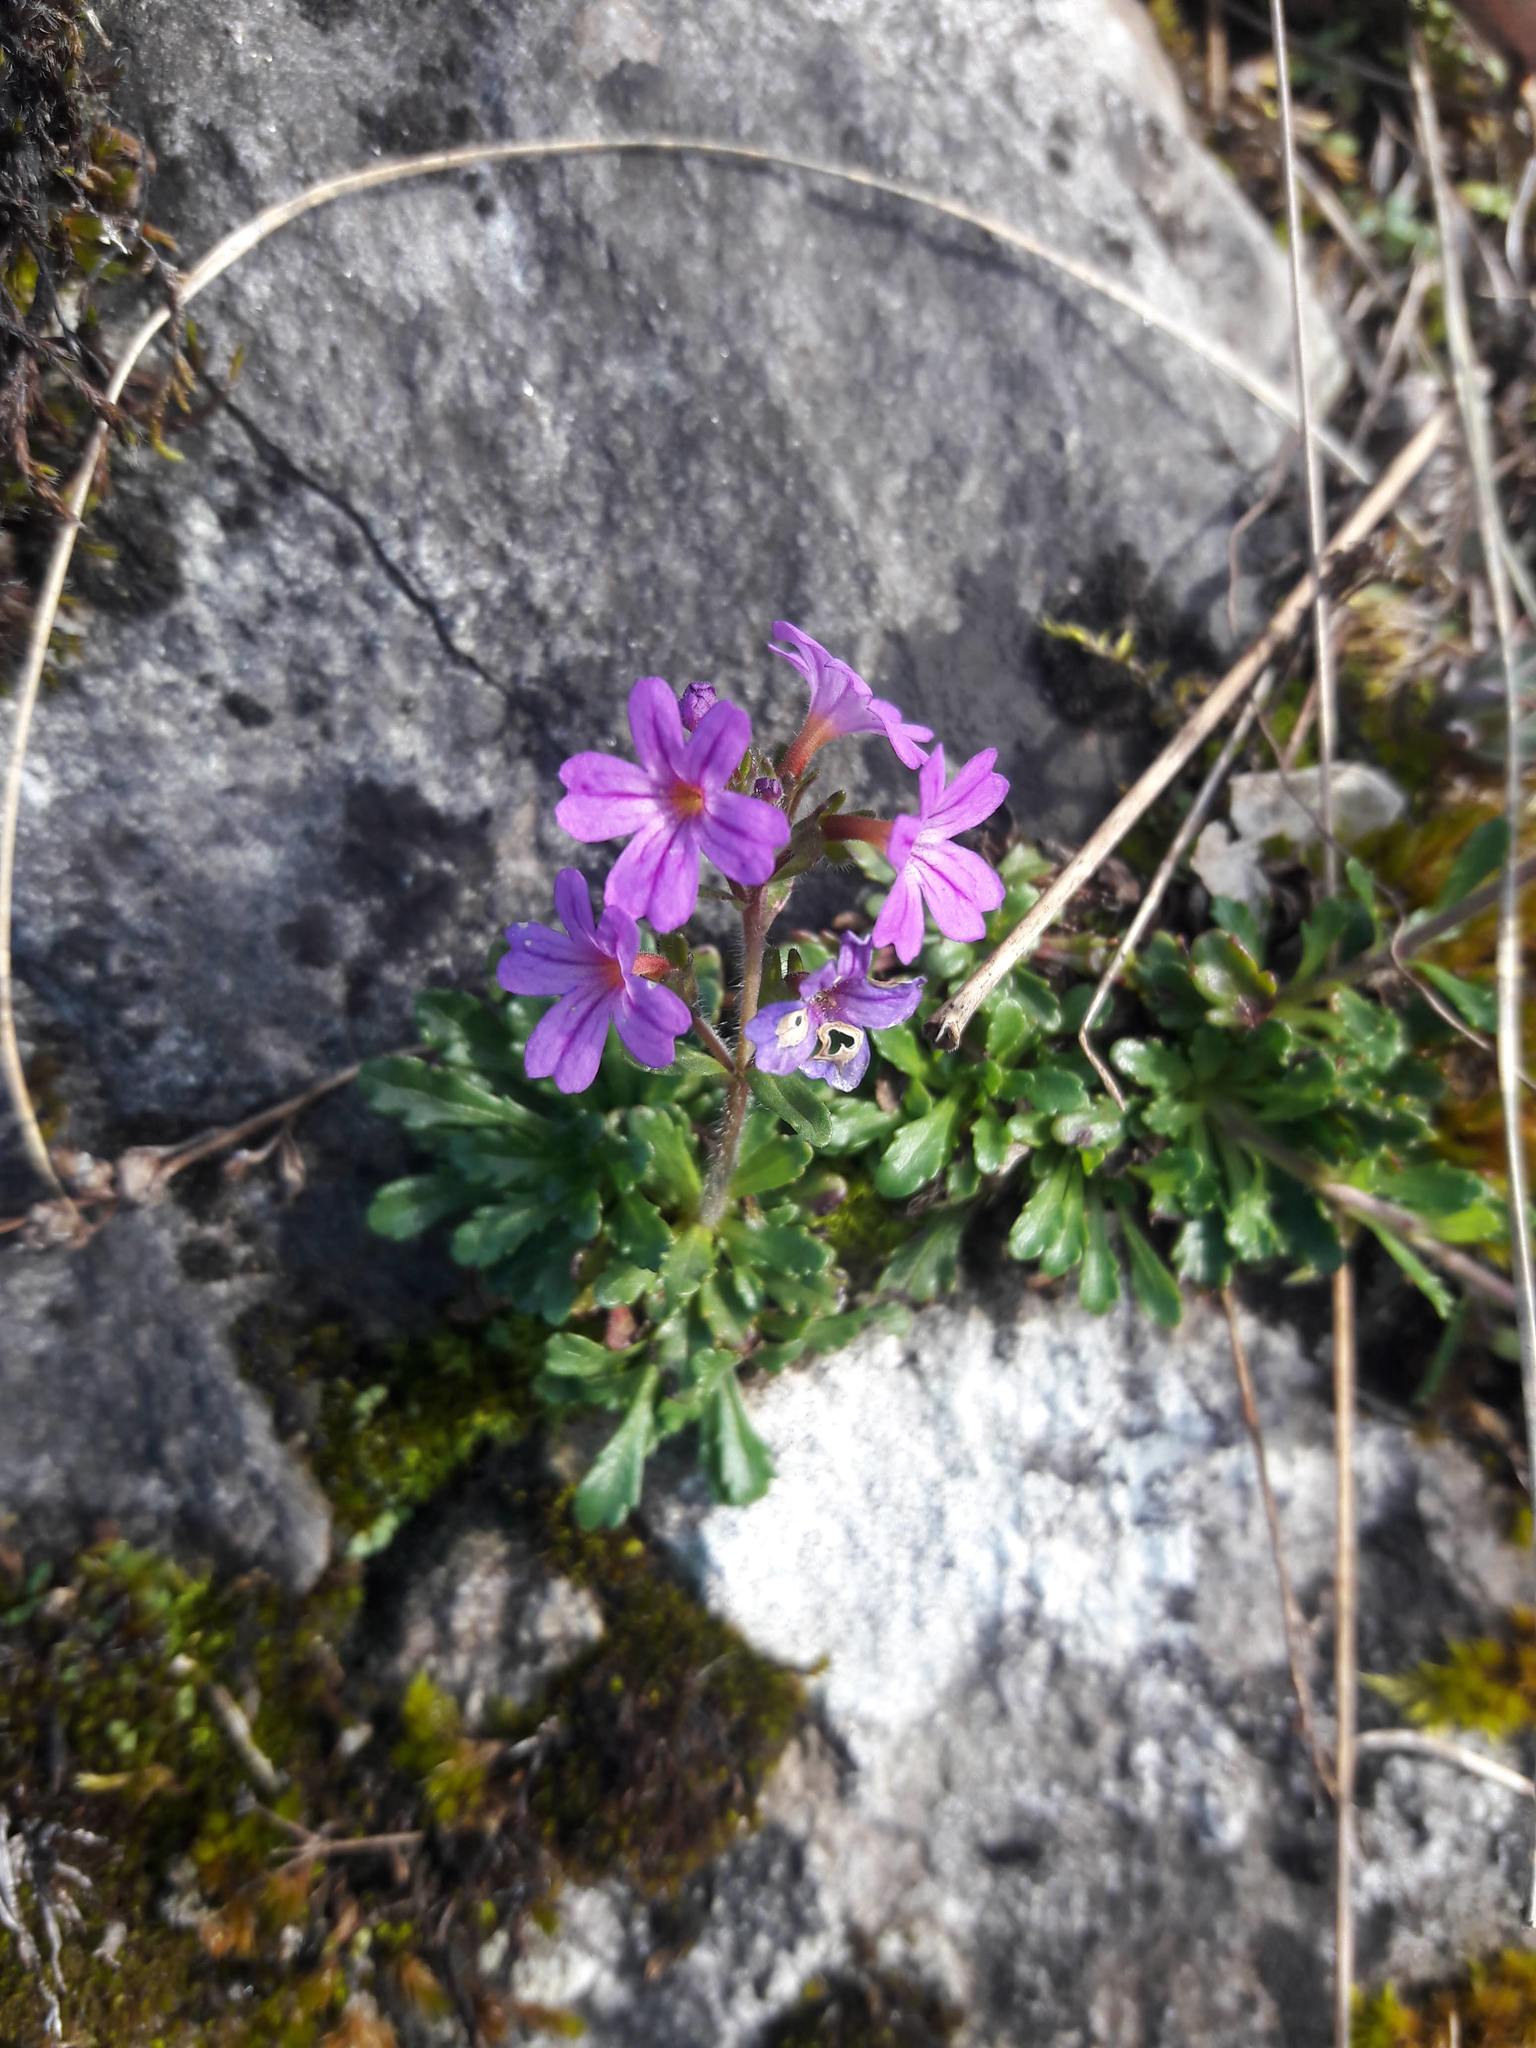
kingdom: Plantae
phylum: Tracheophyta
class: Magnoliopsida
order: Lamiales
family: Plantaginaceae
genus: Erinus
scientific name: Erinus alpinus
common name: Fairy foxglove
